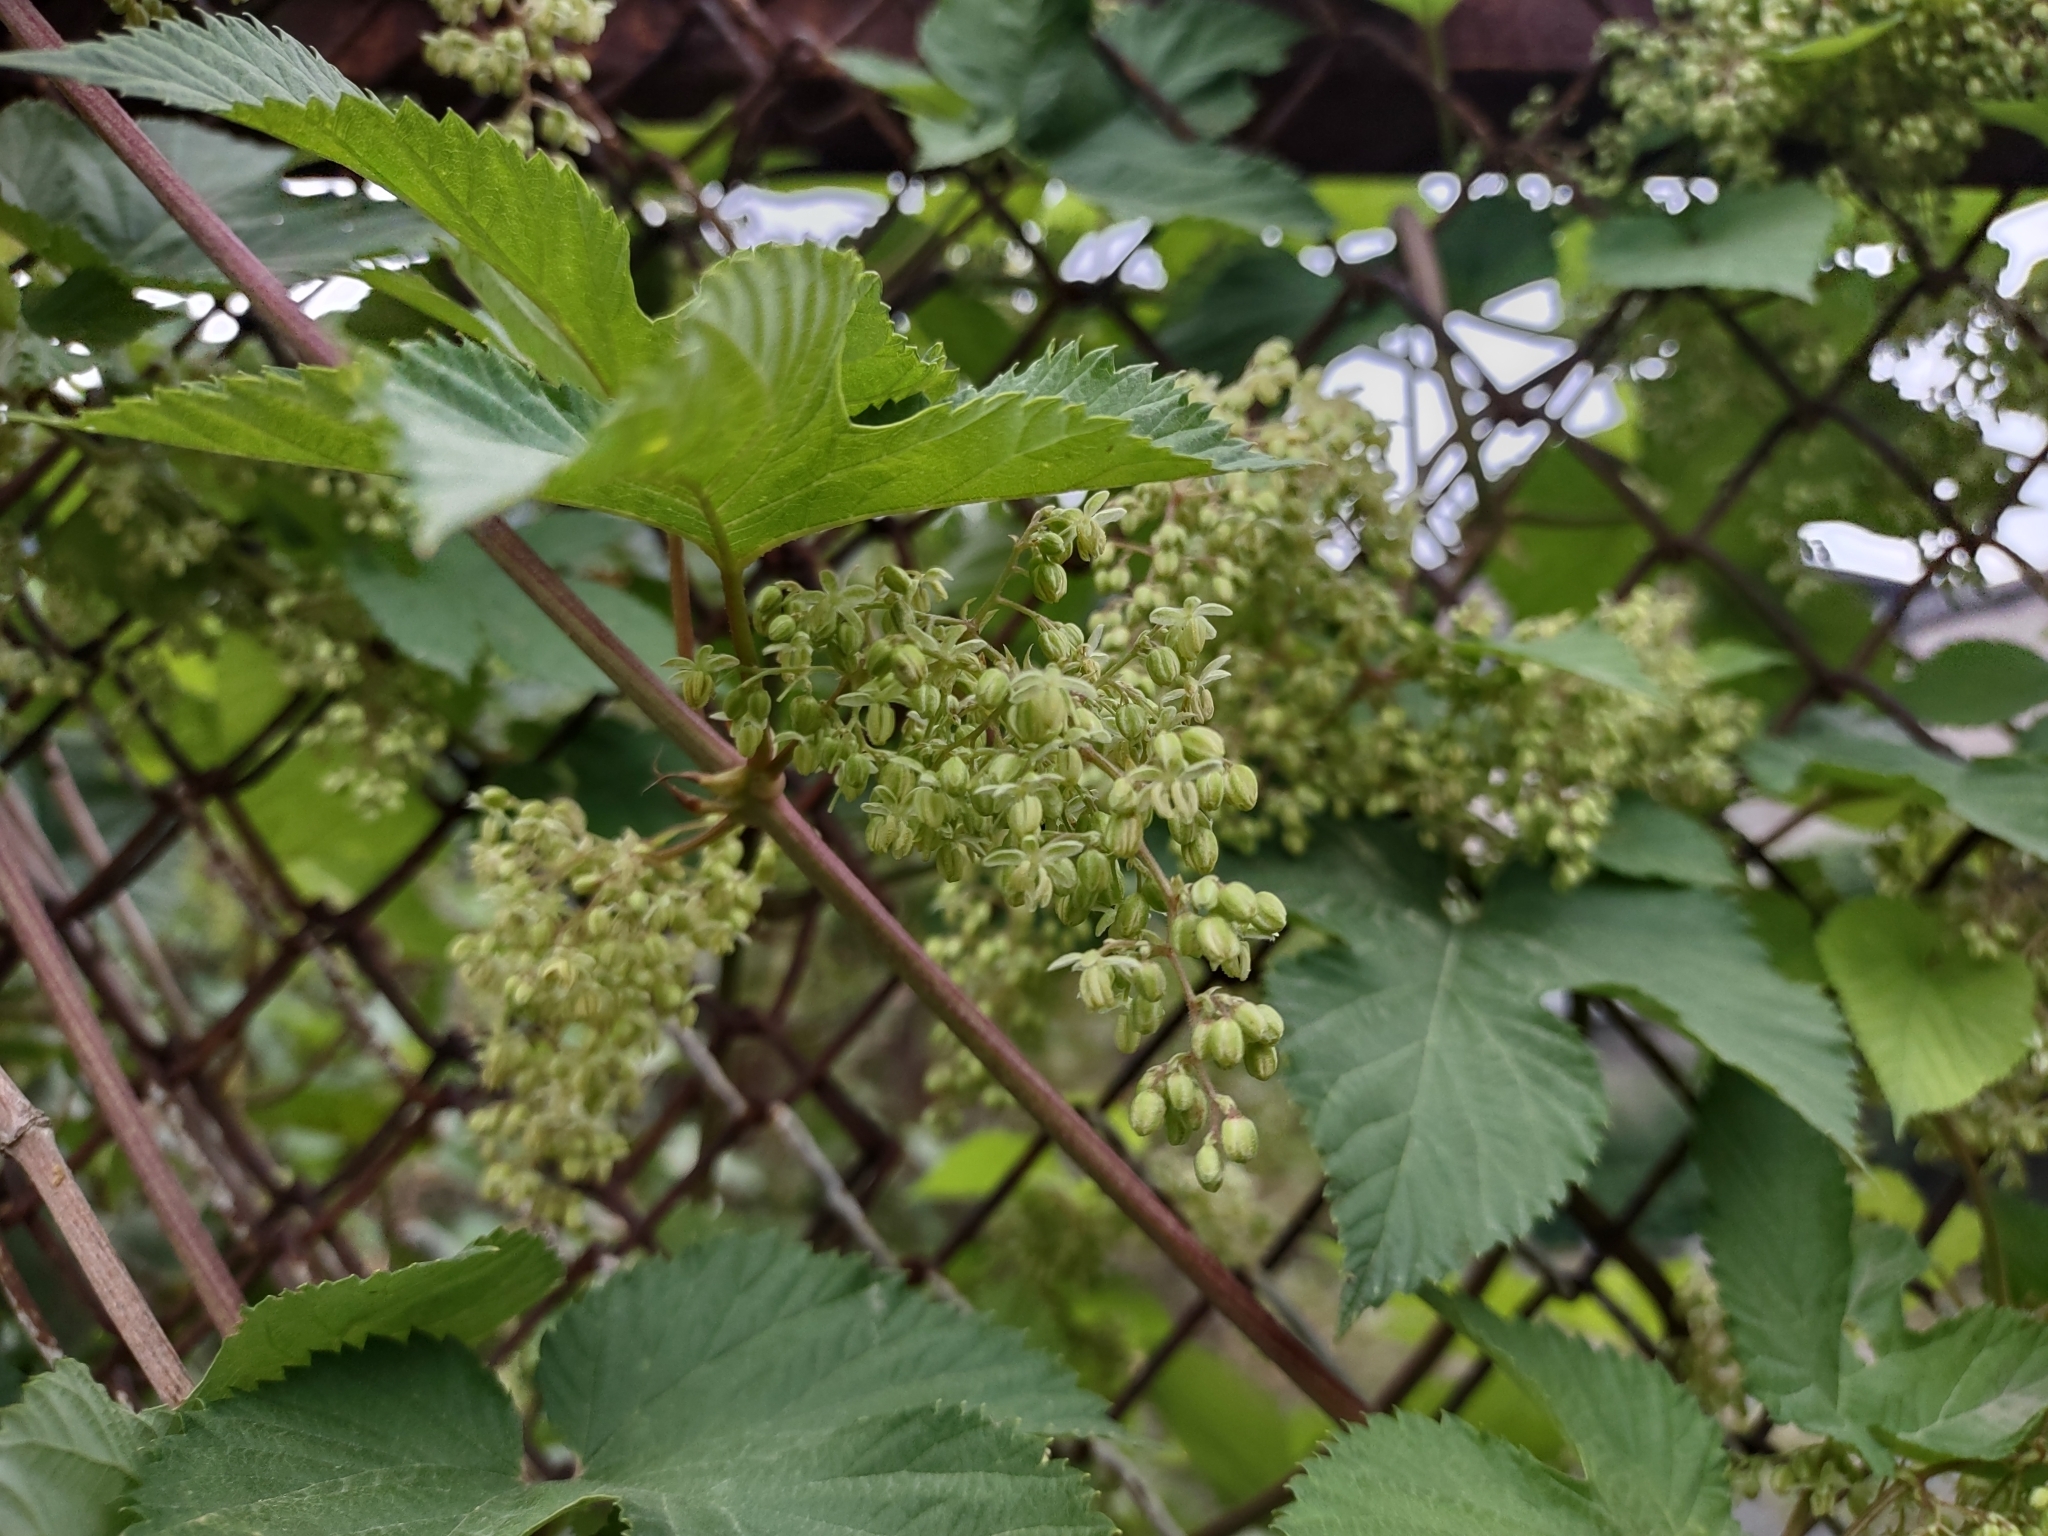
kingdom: Plantae
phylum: Tracheophyta
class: Magnoliopsida
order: Rosales
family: Cannabaceae
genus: Humulus
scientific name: Humulus lupulus
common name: Hop
